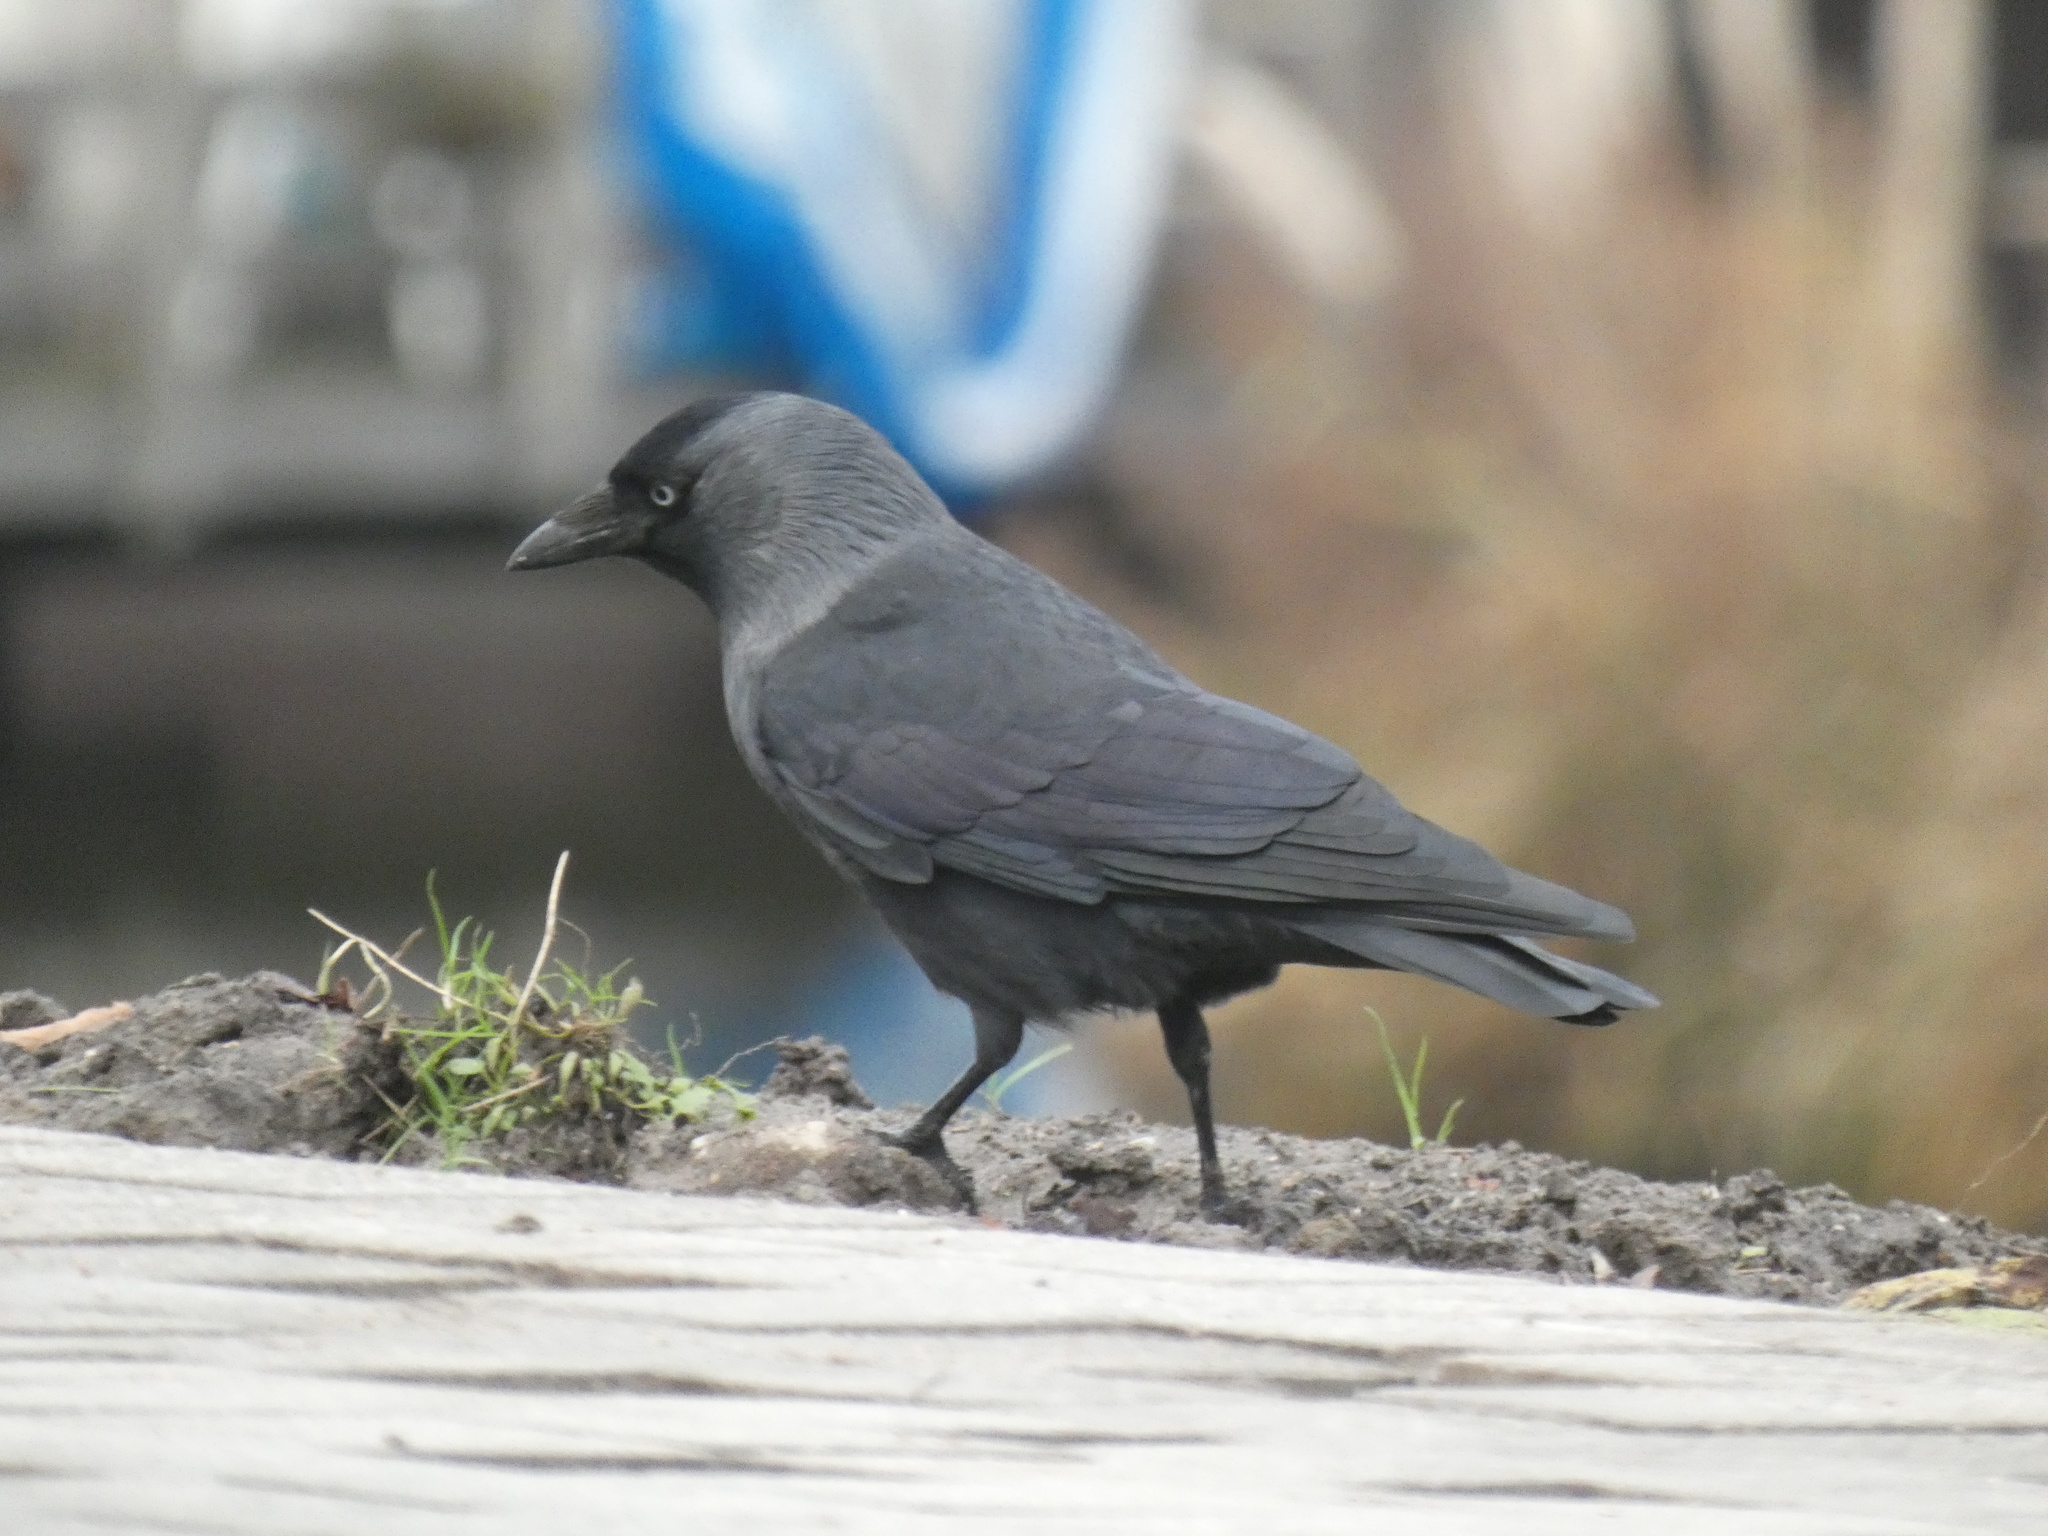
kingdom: Animalia
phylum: Chordata
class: Aves
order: Passeriformes
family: Corvidae
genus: Coloeus
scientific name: Coloeus monedula
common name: Western jackdaw
